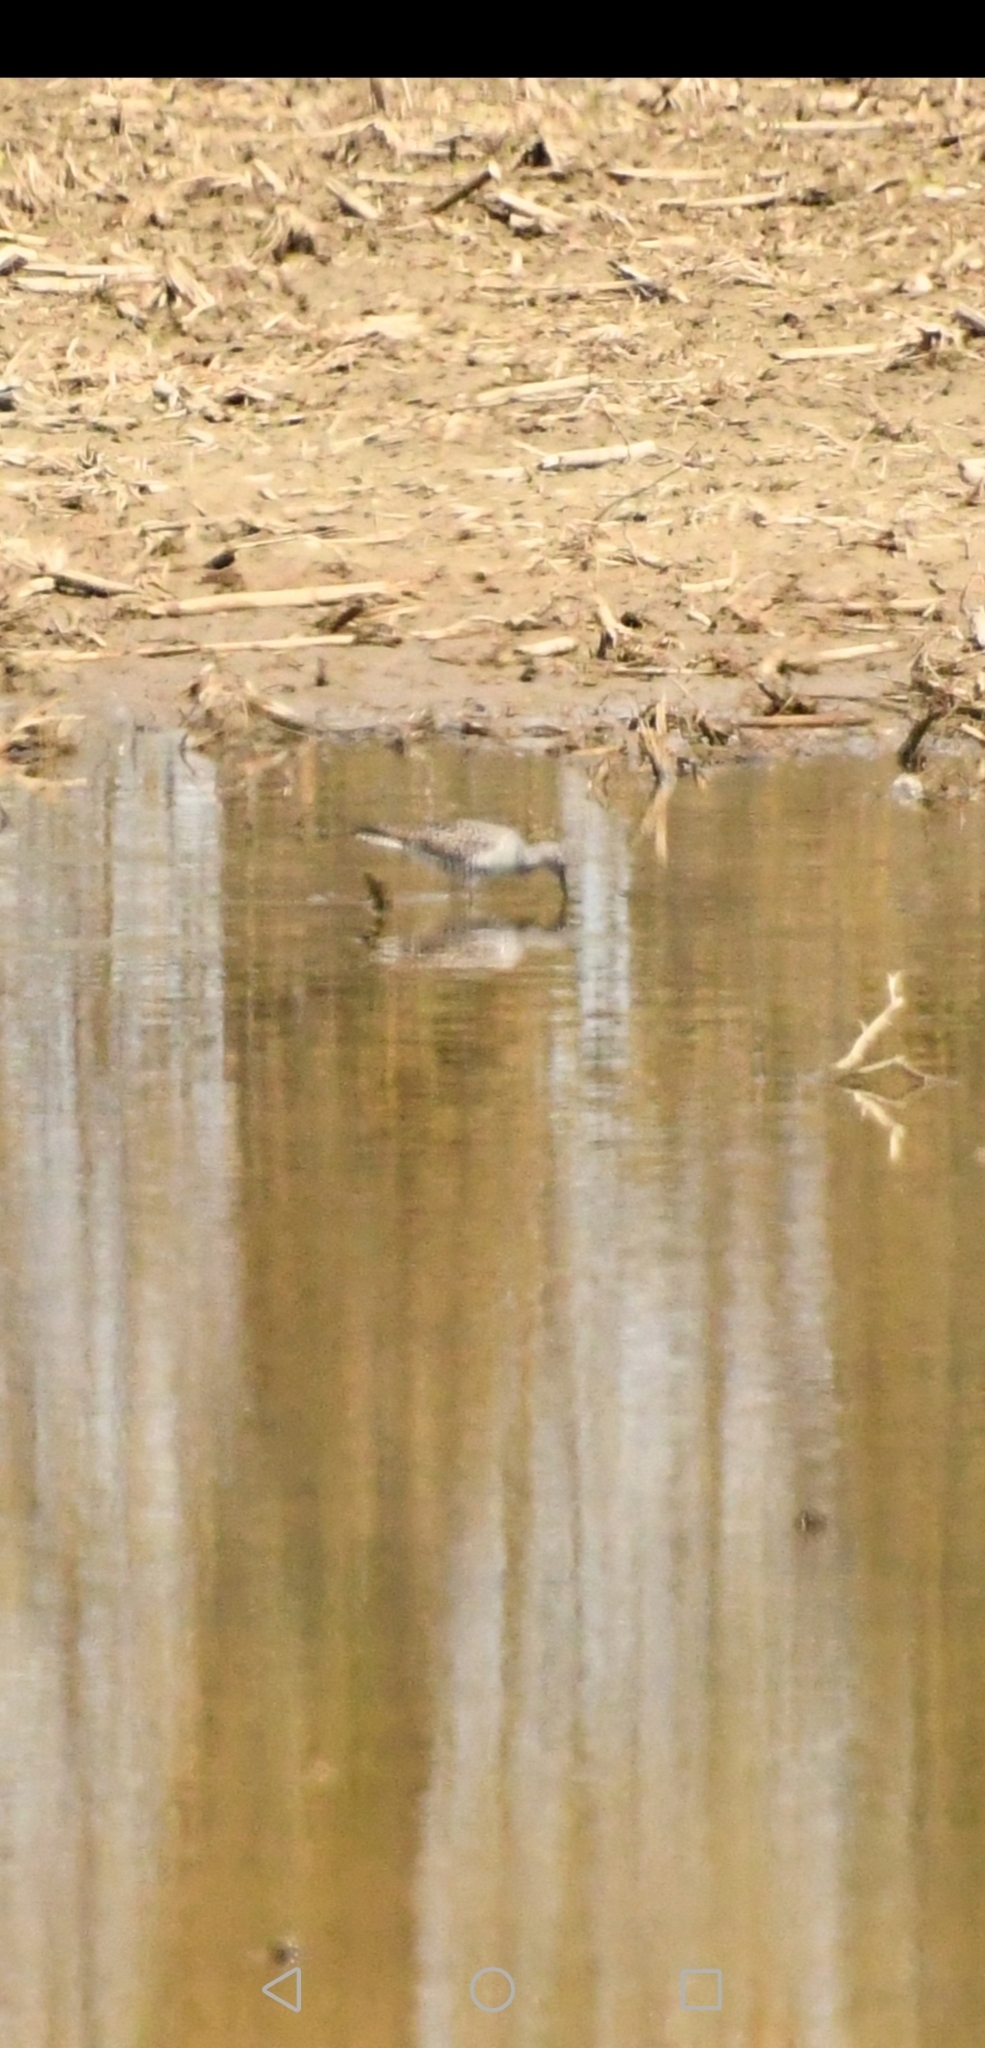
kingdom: Animalia
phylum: Chordata
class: Aves
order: Charadriiformes
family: Scolopacidae
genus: Tringa
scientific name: Tringa melanoleuca
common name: Greater yellowlegs
